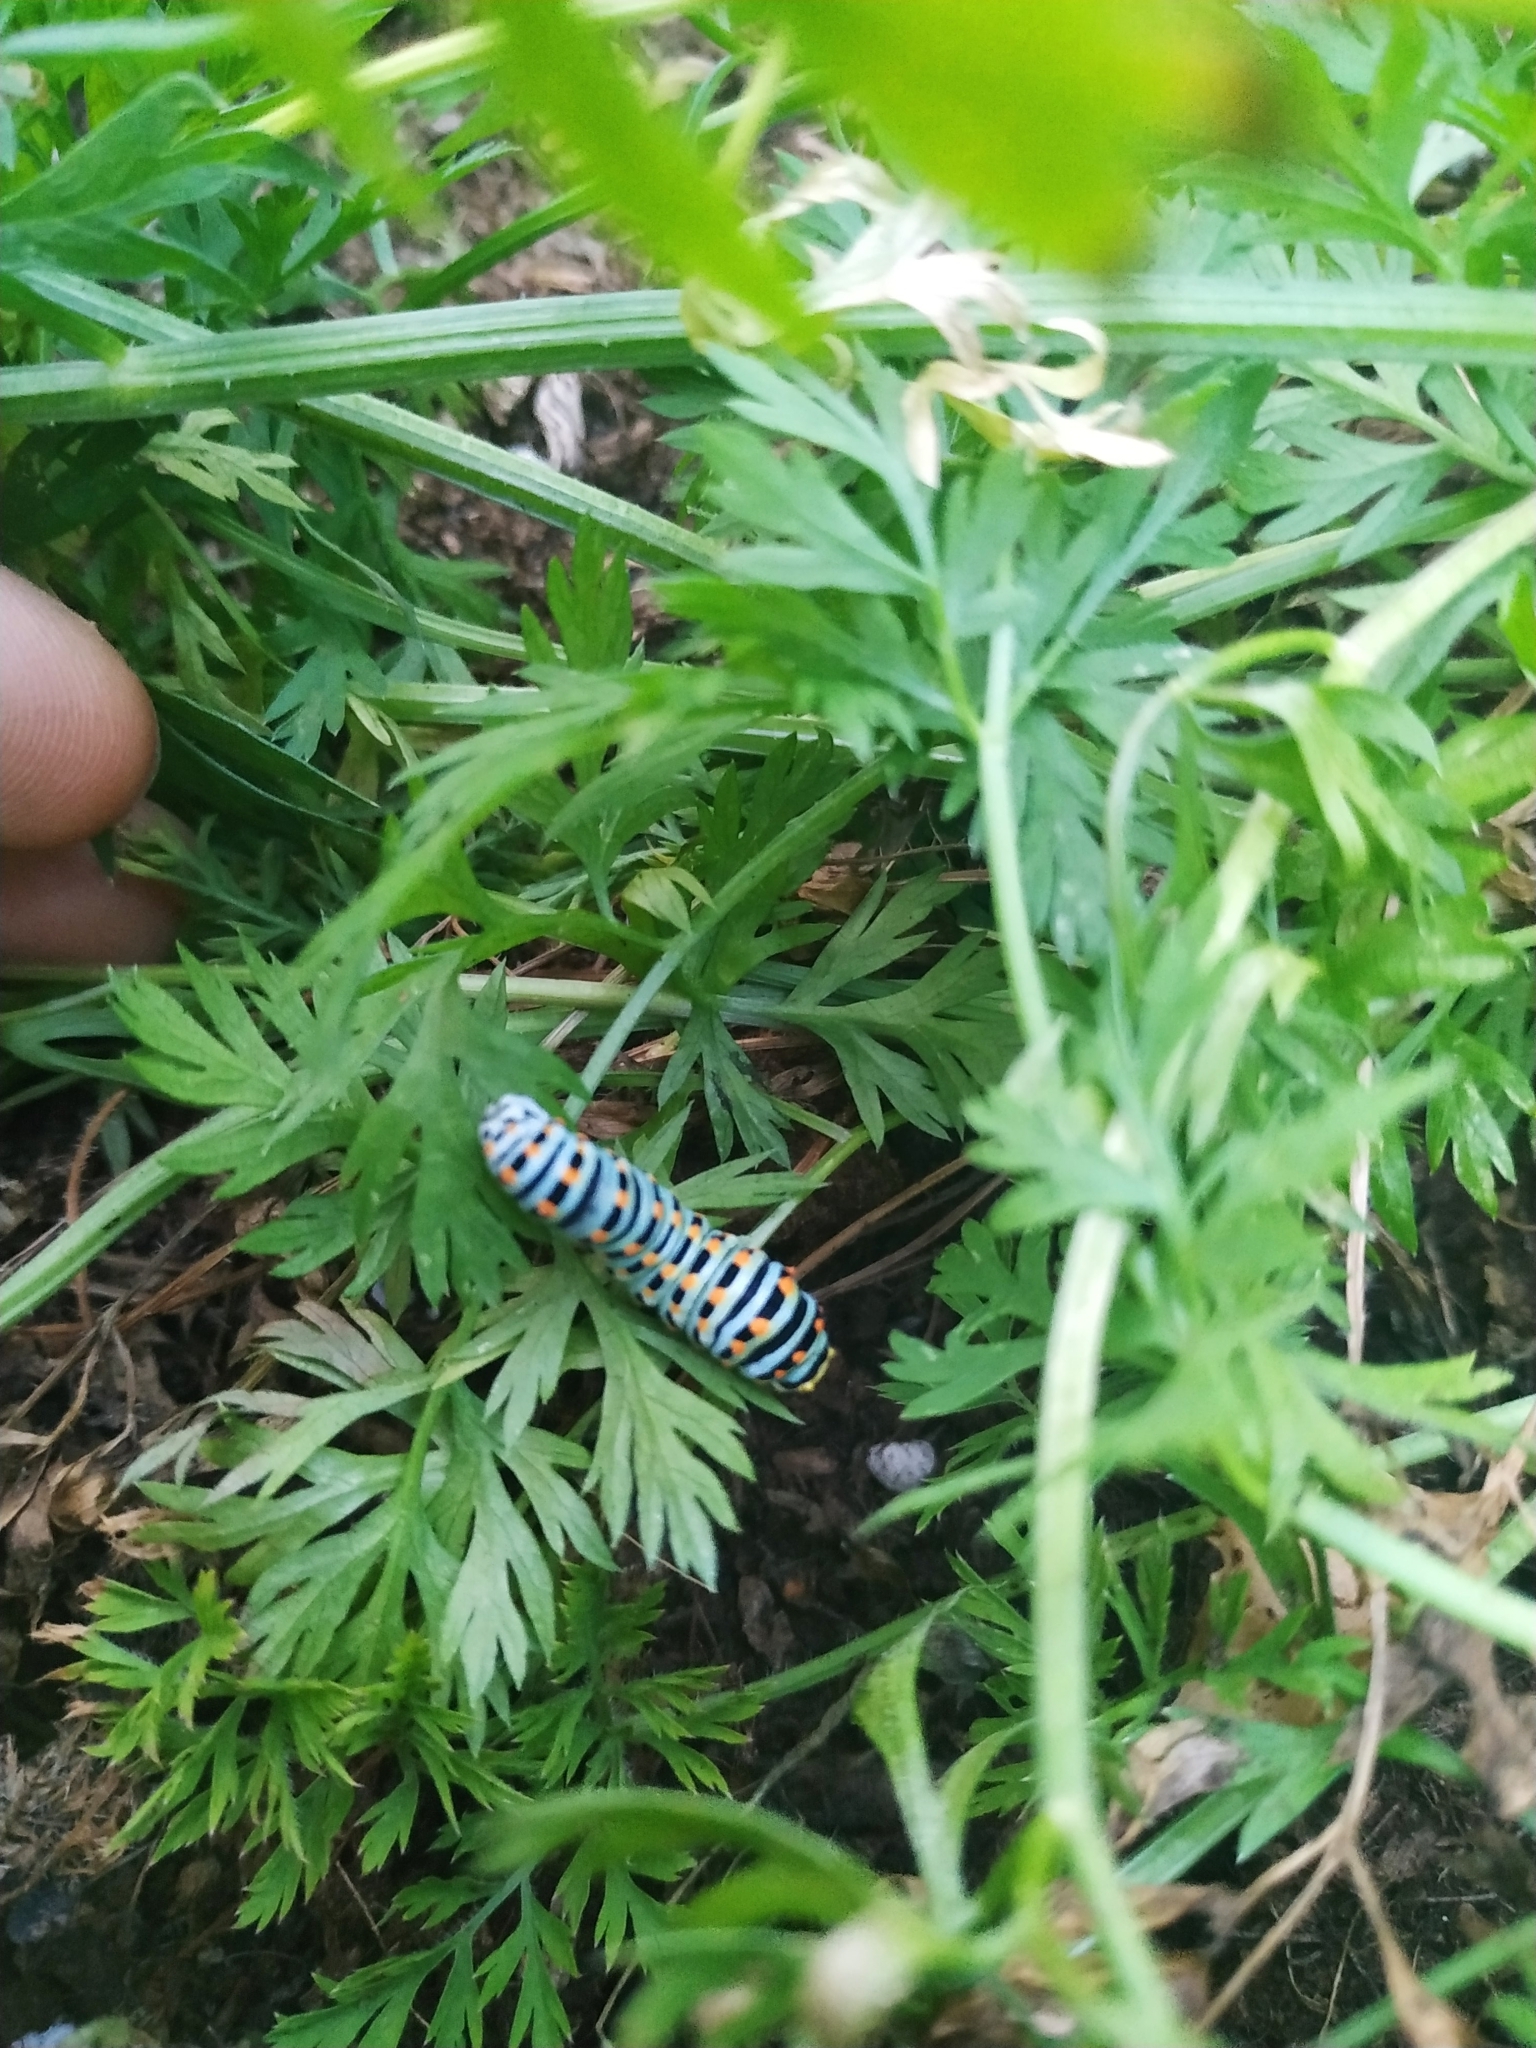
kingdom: Animalia
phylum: Arthropoda
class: Insecta
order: Lepidoptera
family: Papilionidae
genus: Papilio
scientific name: Papilio machaon
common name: Swallowtail
